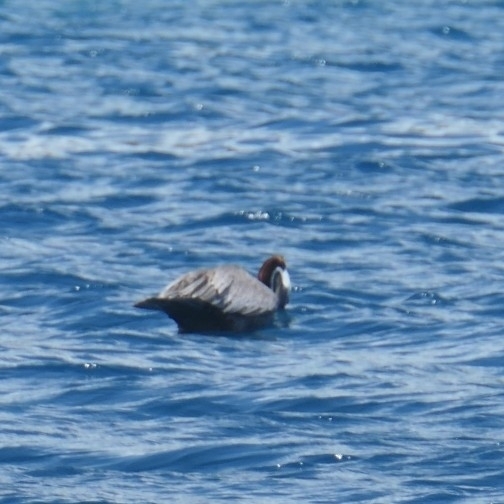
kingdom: Animalia
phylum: Chordata
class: Aves
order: Pelecaniformes
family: Pelecanidae
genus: Pelecanus
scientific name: Pelecanus occidentalis
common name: Brown pelican
